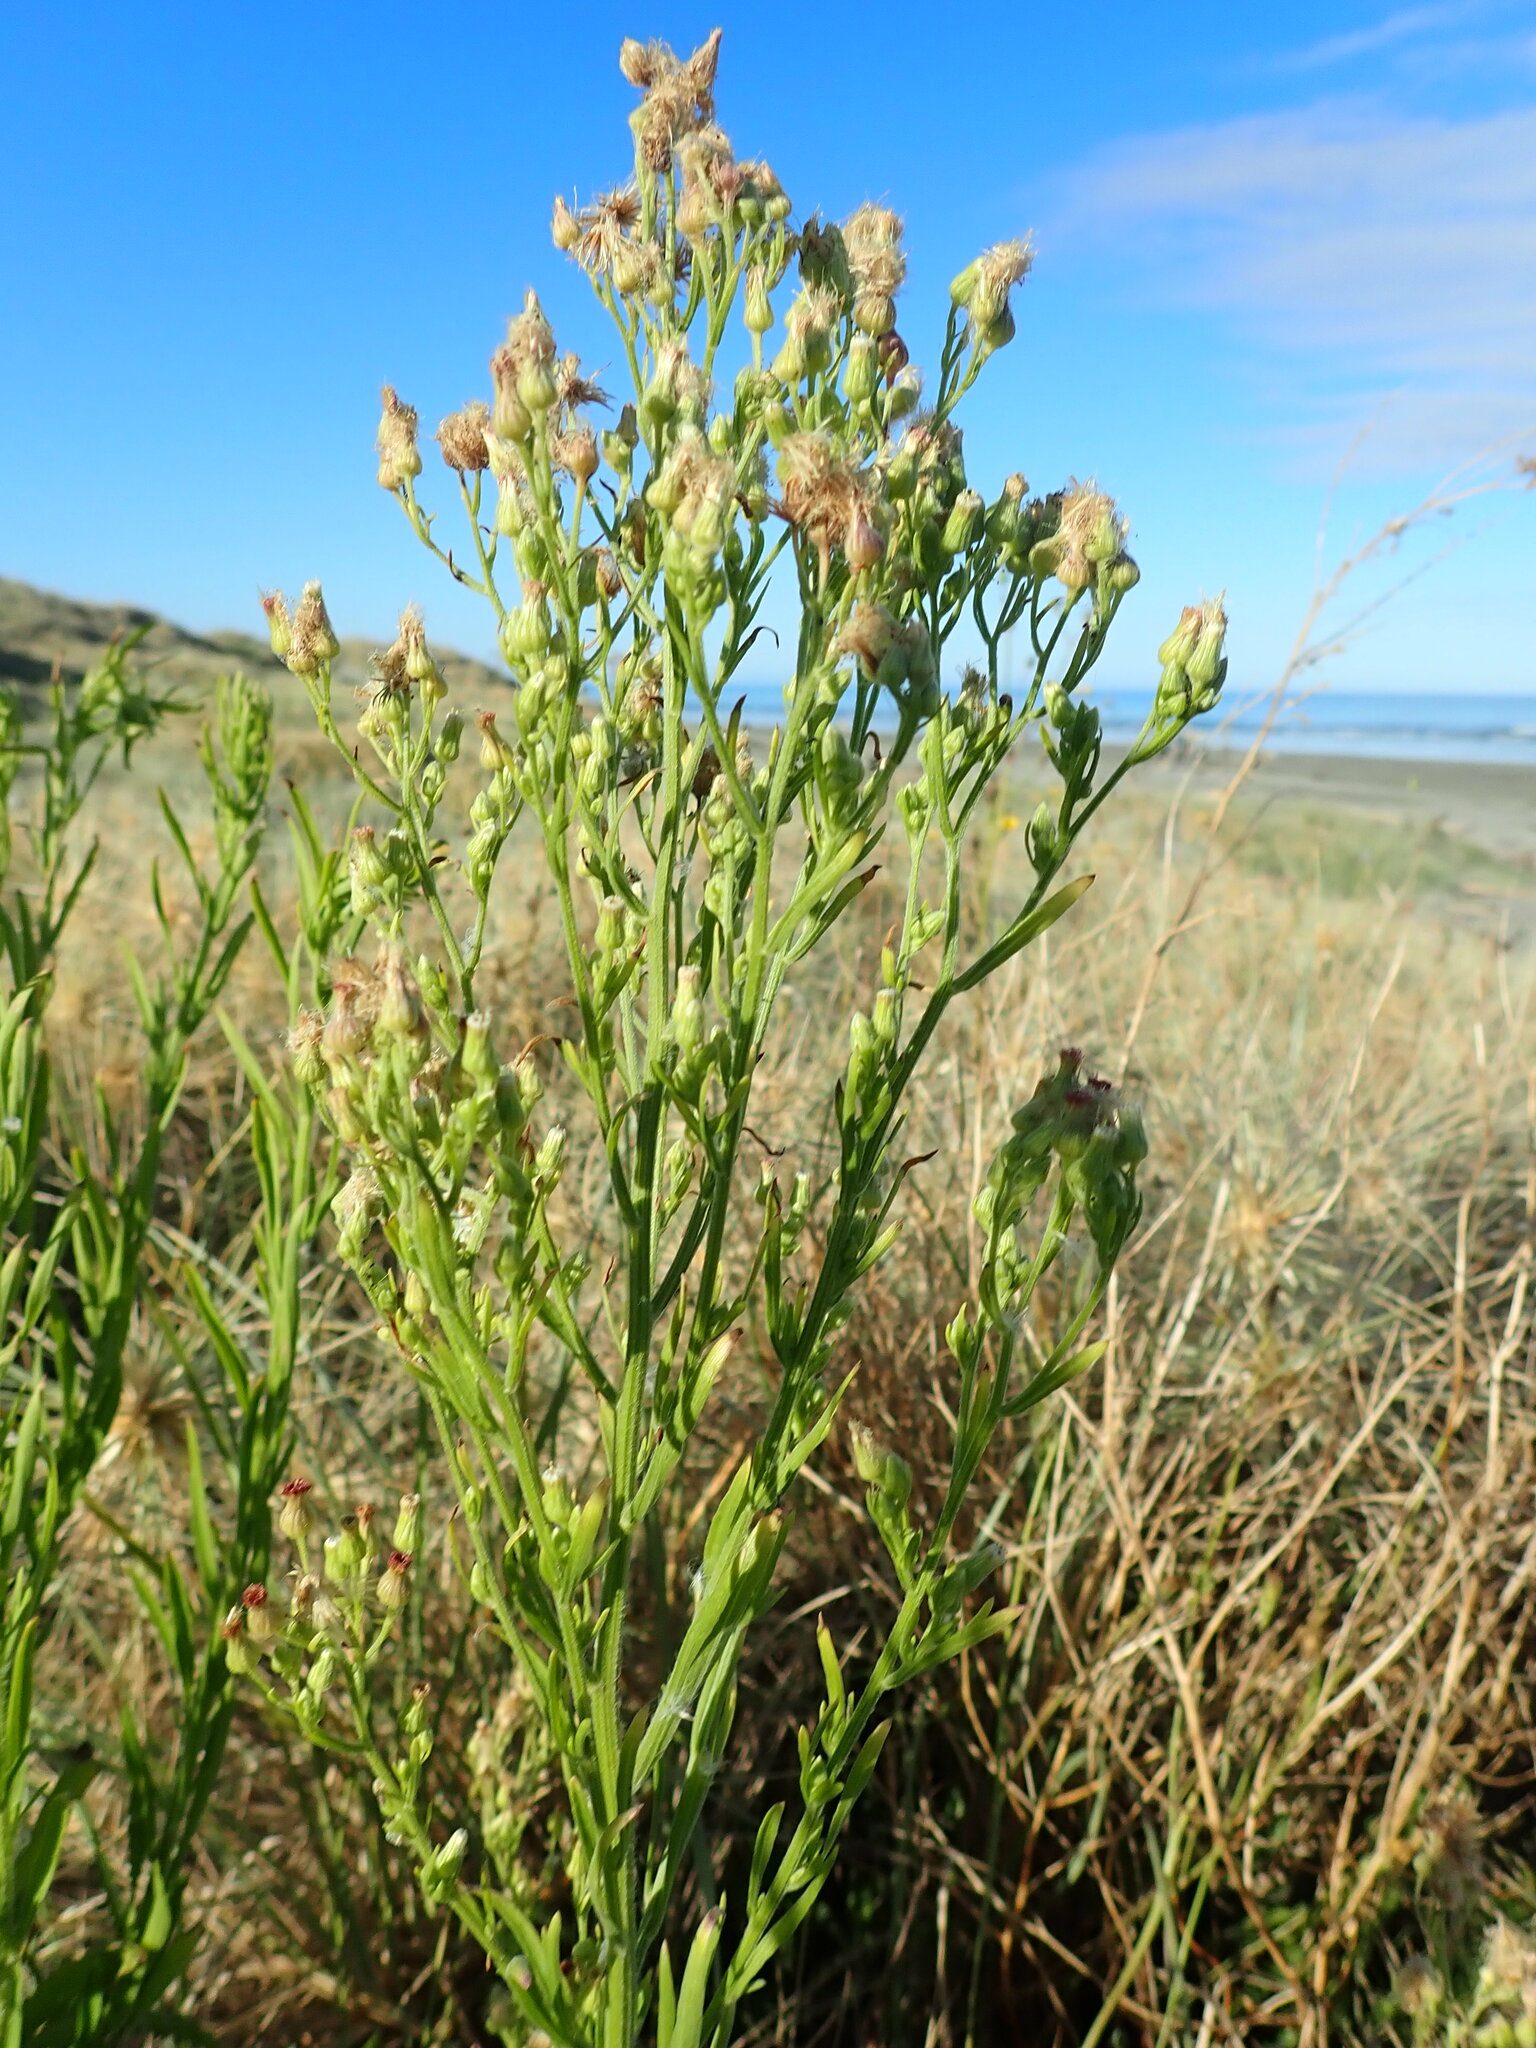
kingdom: Plantae
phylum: Tracheophyta
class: Magnoliopsida
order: Asterales
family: Asteraceae
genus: Erigeron
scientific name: Erigeron sumatrensis
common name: Daisy
